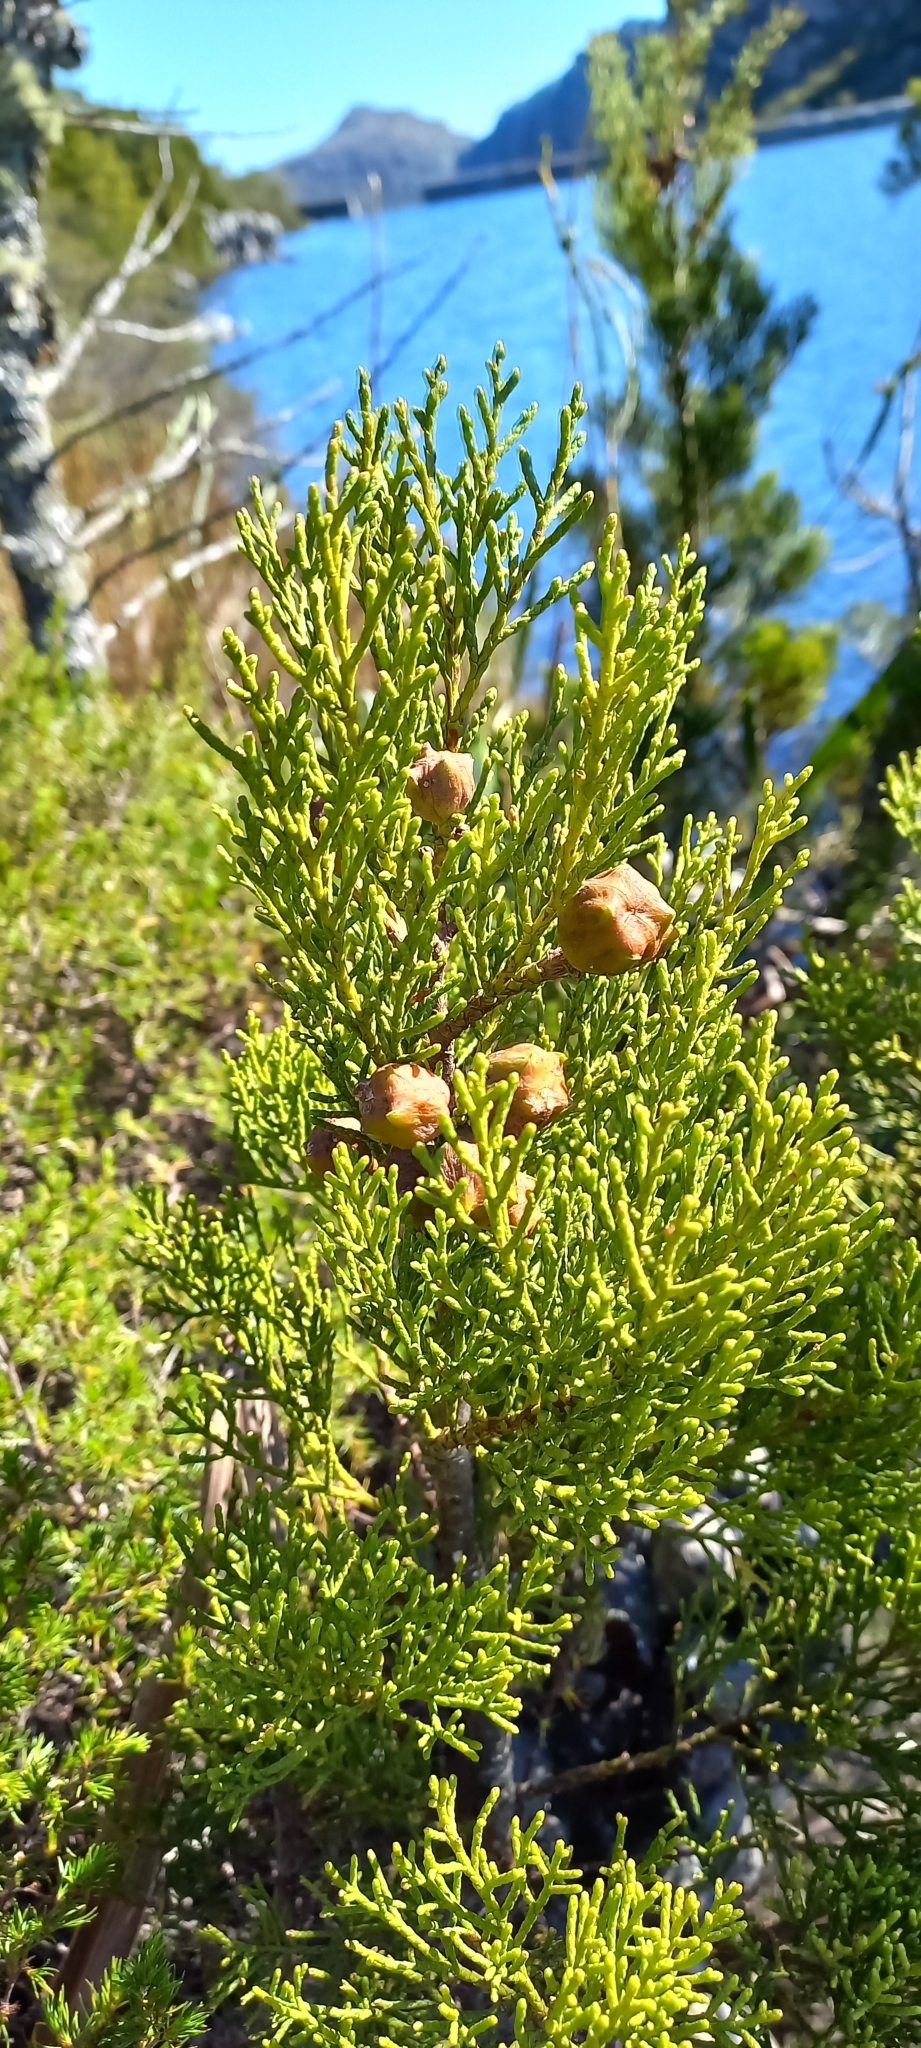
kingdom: Plantae
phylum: Tracheophyta
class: Pinopsida
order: Pinales
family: Cupressaceae
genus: Widdringtonia
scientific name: Widdringtonia nodiflora
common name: Cape cypress
